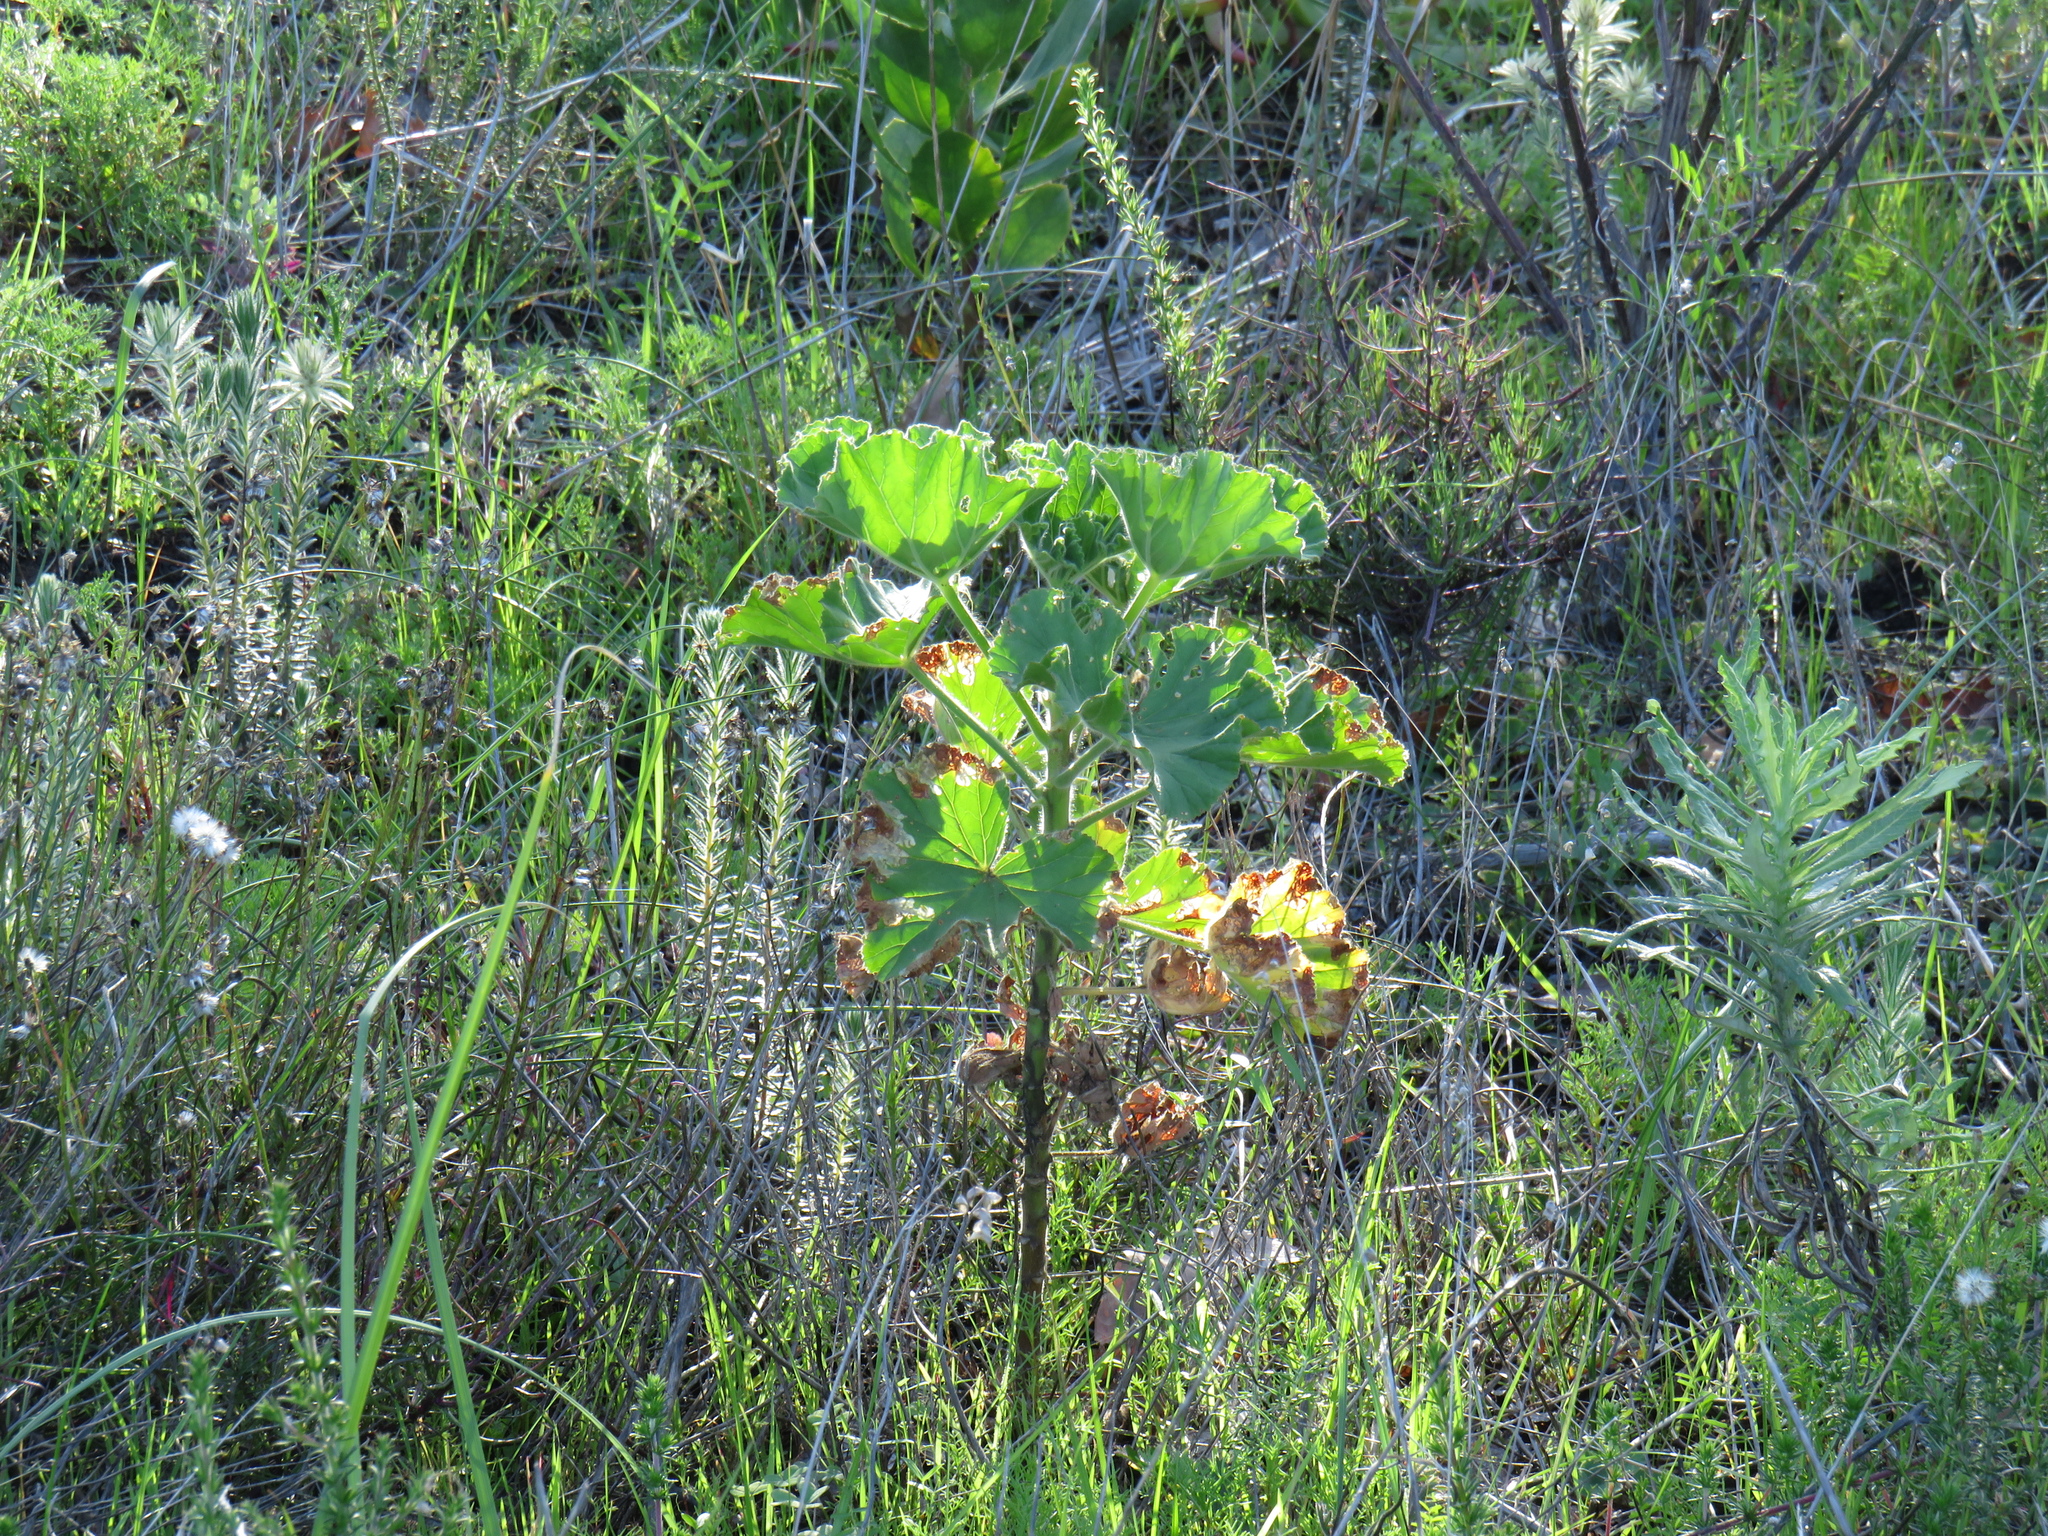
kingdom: Plantae
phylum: Tracheophyta
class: Magnoliopsida
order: Geraniales
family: Geraniaceae
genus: Pelargonium
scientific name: Pelargonium cucullatum
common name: Tree pelargonium
